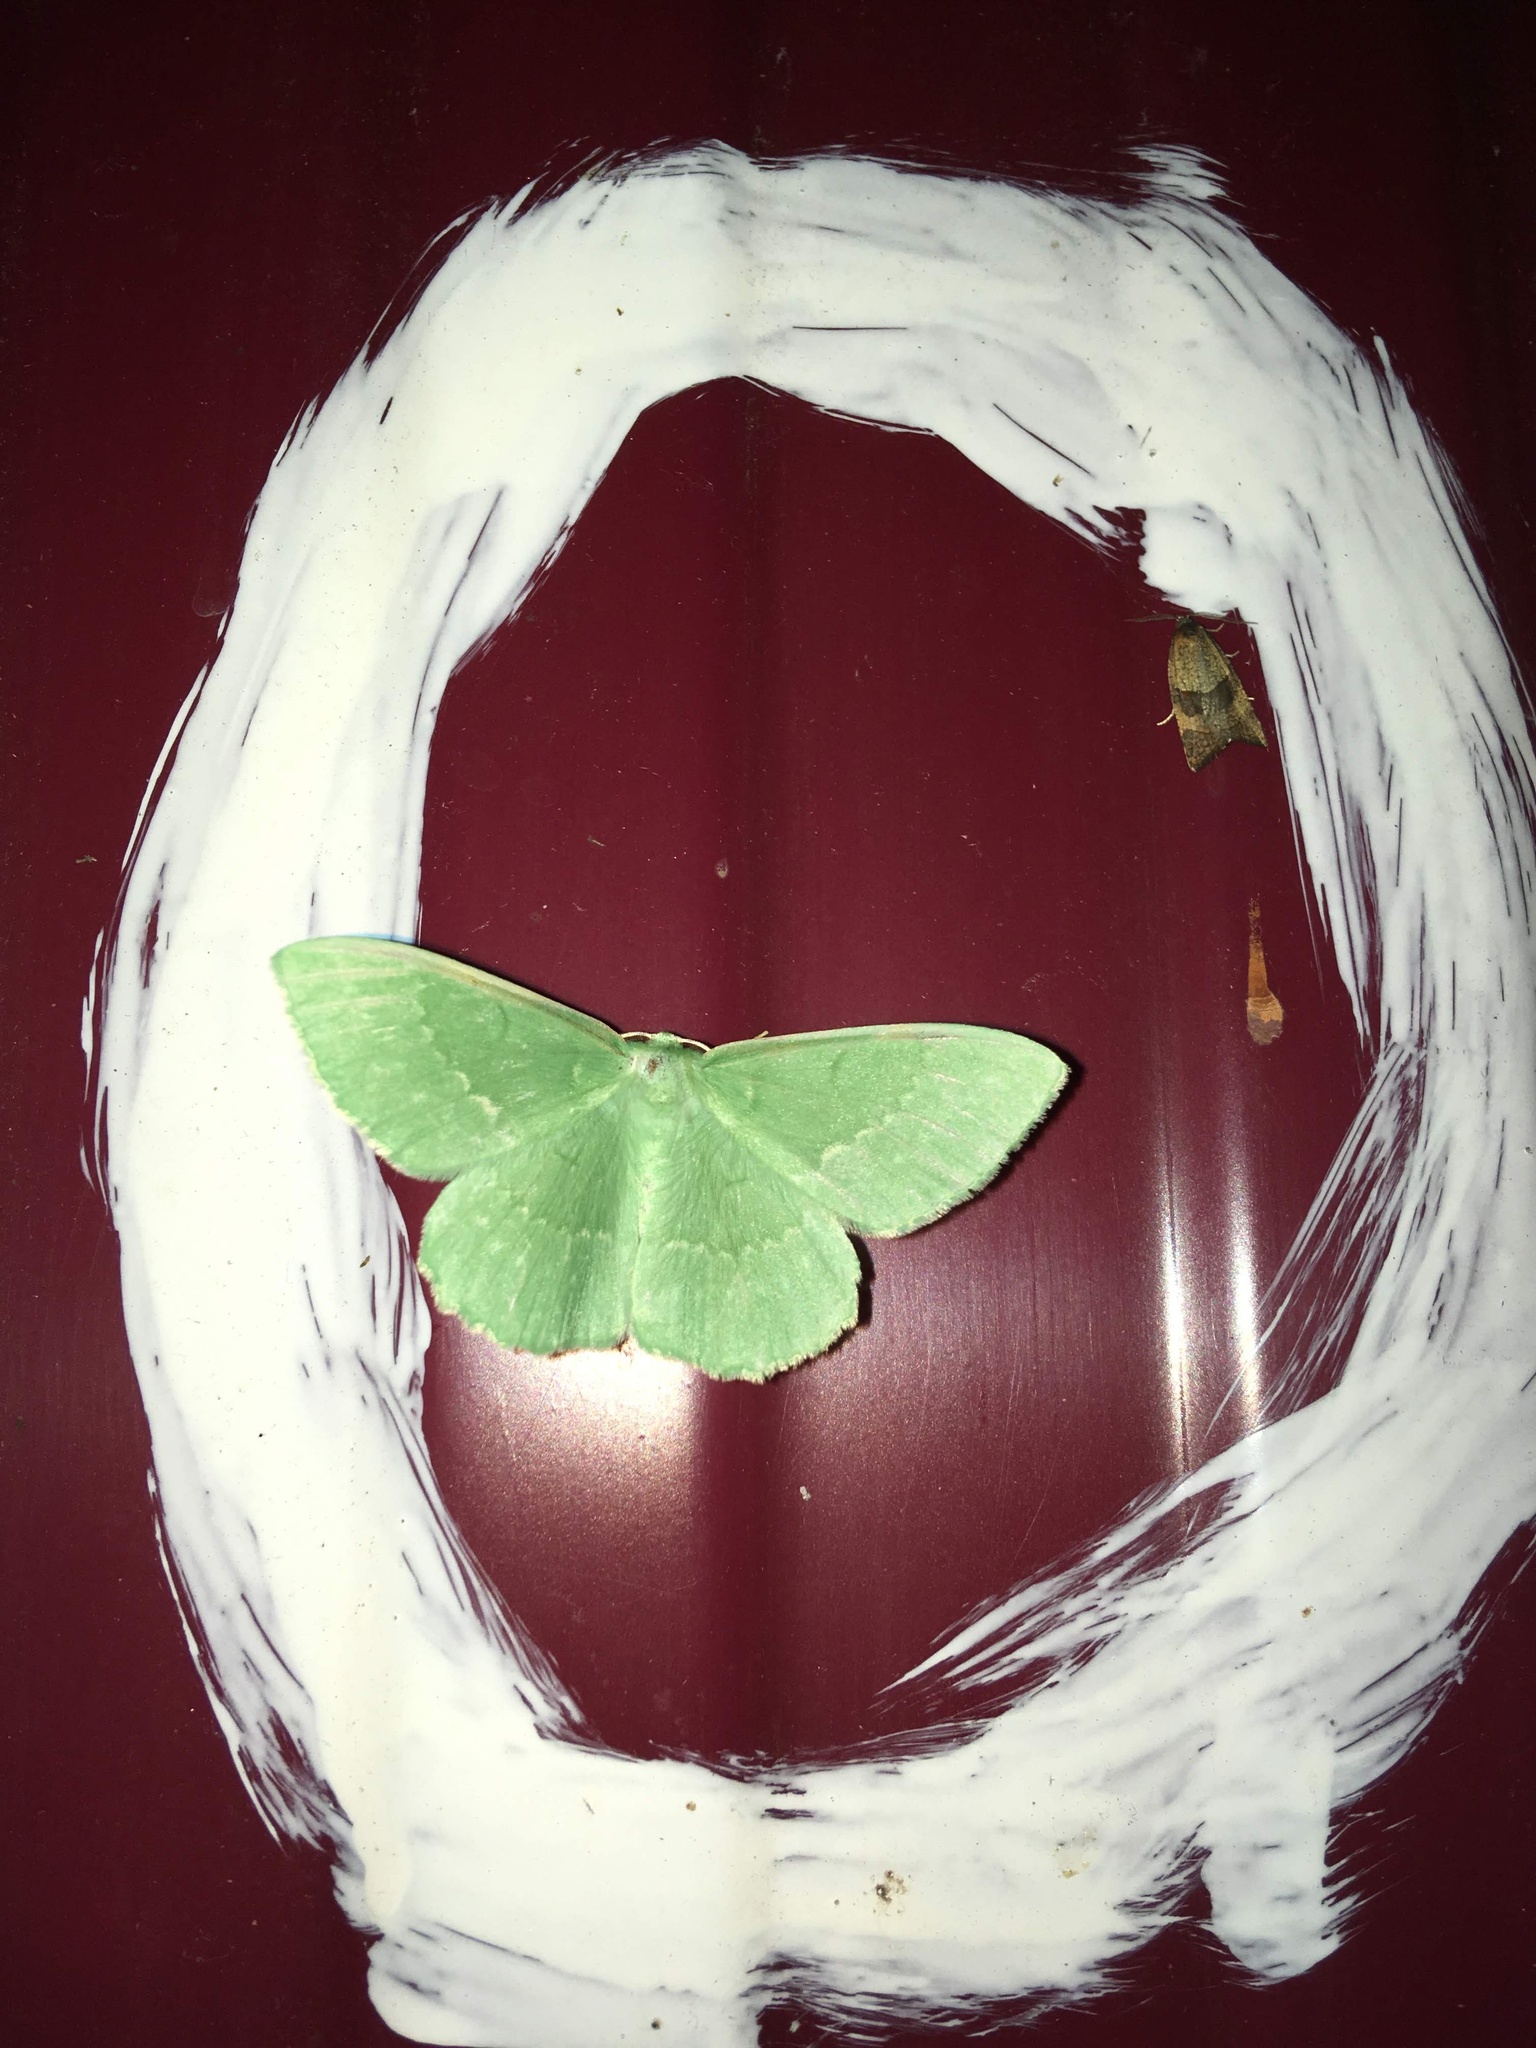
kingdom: Animalia
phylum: Arthropoda
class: Insecta
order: Lepidoptera
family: Geometridae
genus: Geometra
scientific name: Geometra papilionaria
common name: Large emerald
